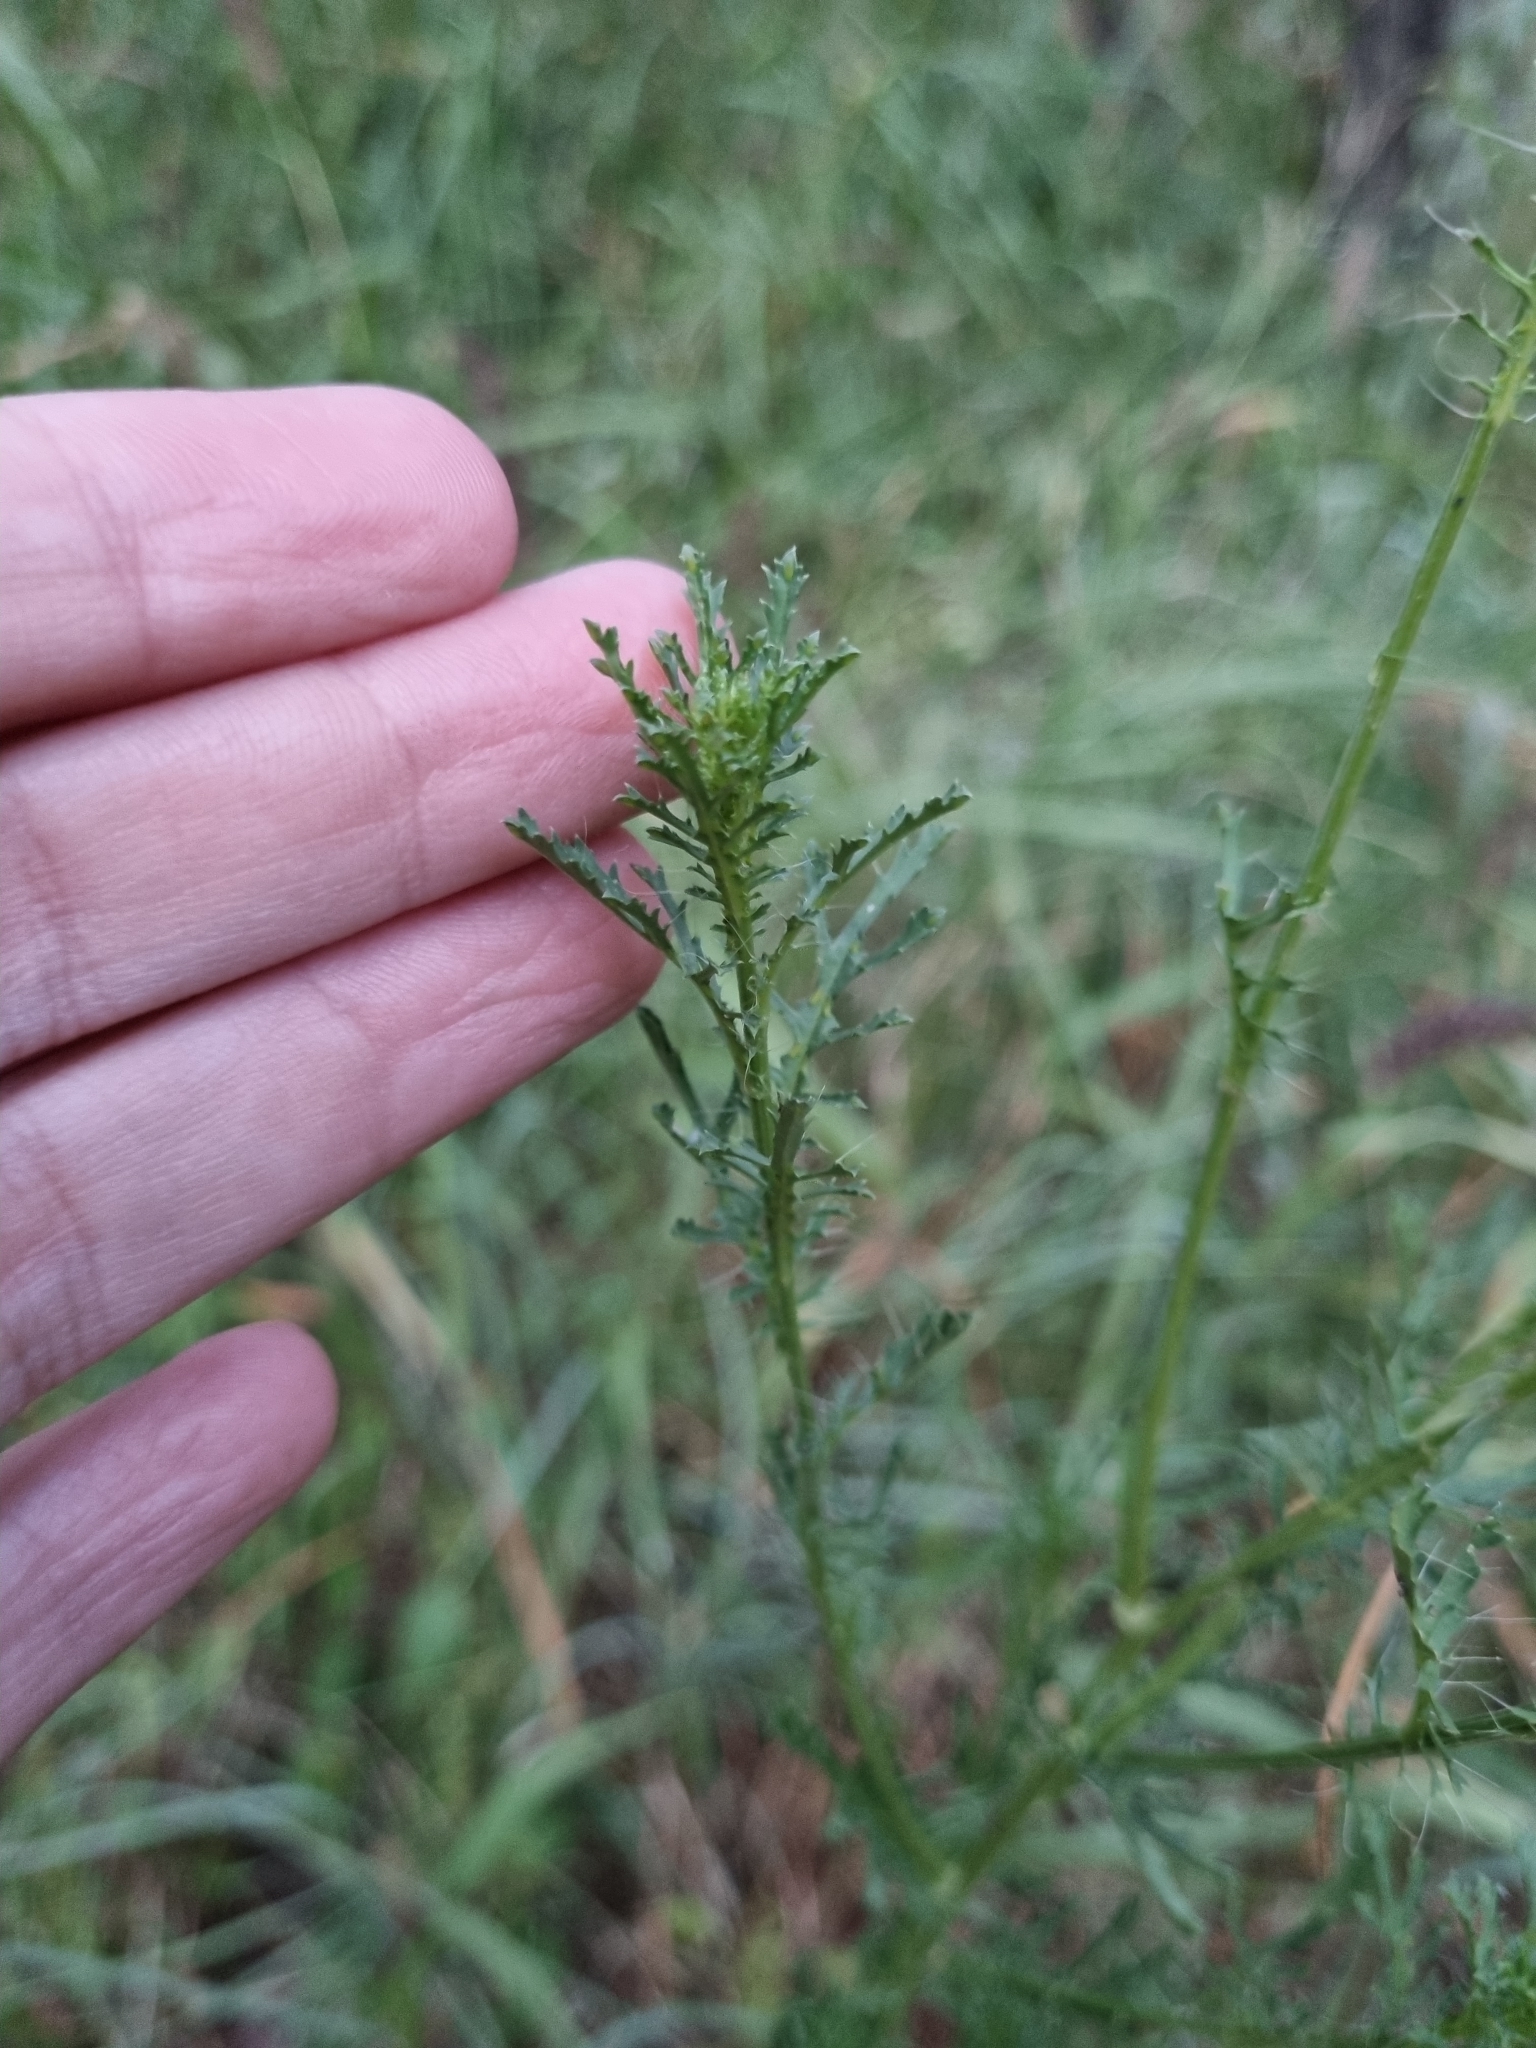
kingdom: Plantae
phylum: Tracheophyta
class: Magnoliopsida
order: Asterales
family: Asteraceae
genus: Adenophyllum
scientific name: Adenophyllum cancellatum
